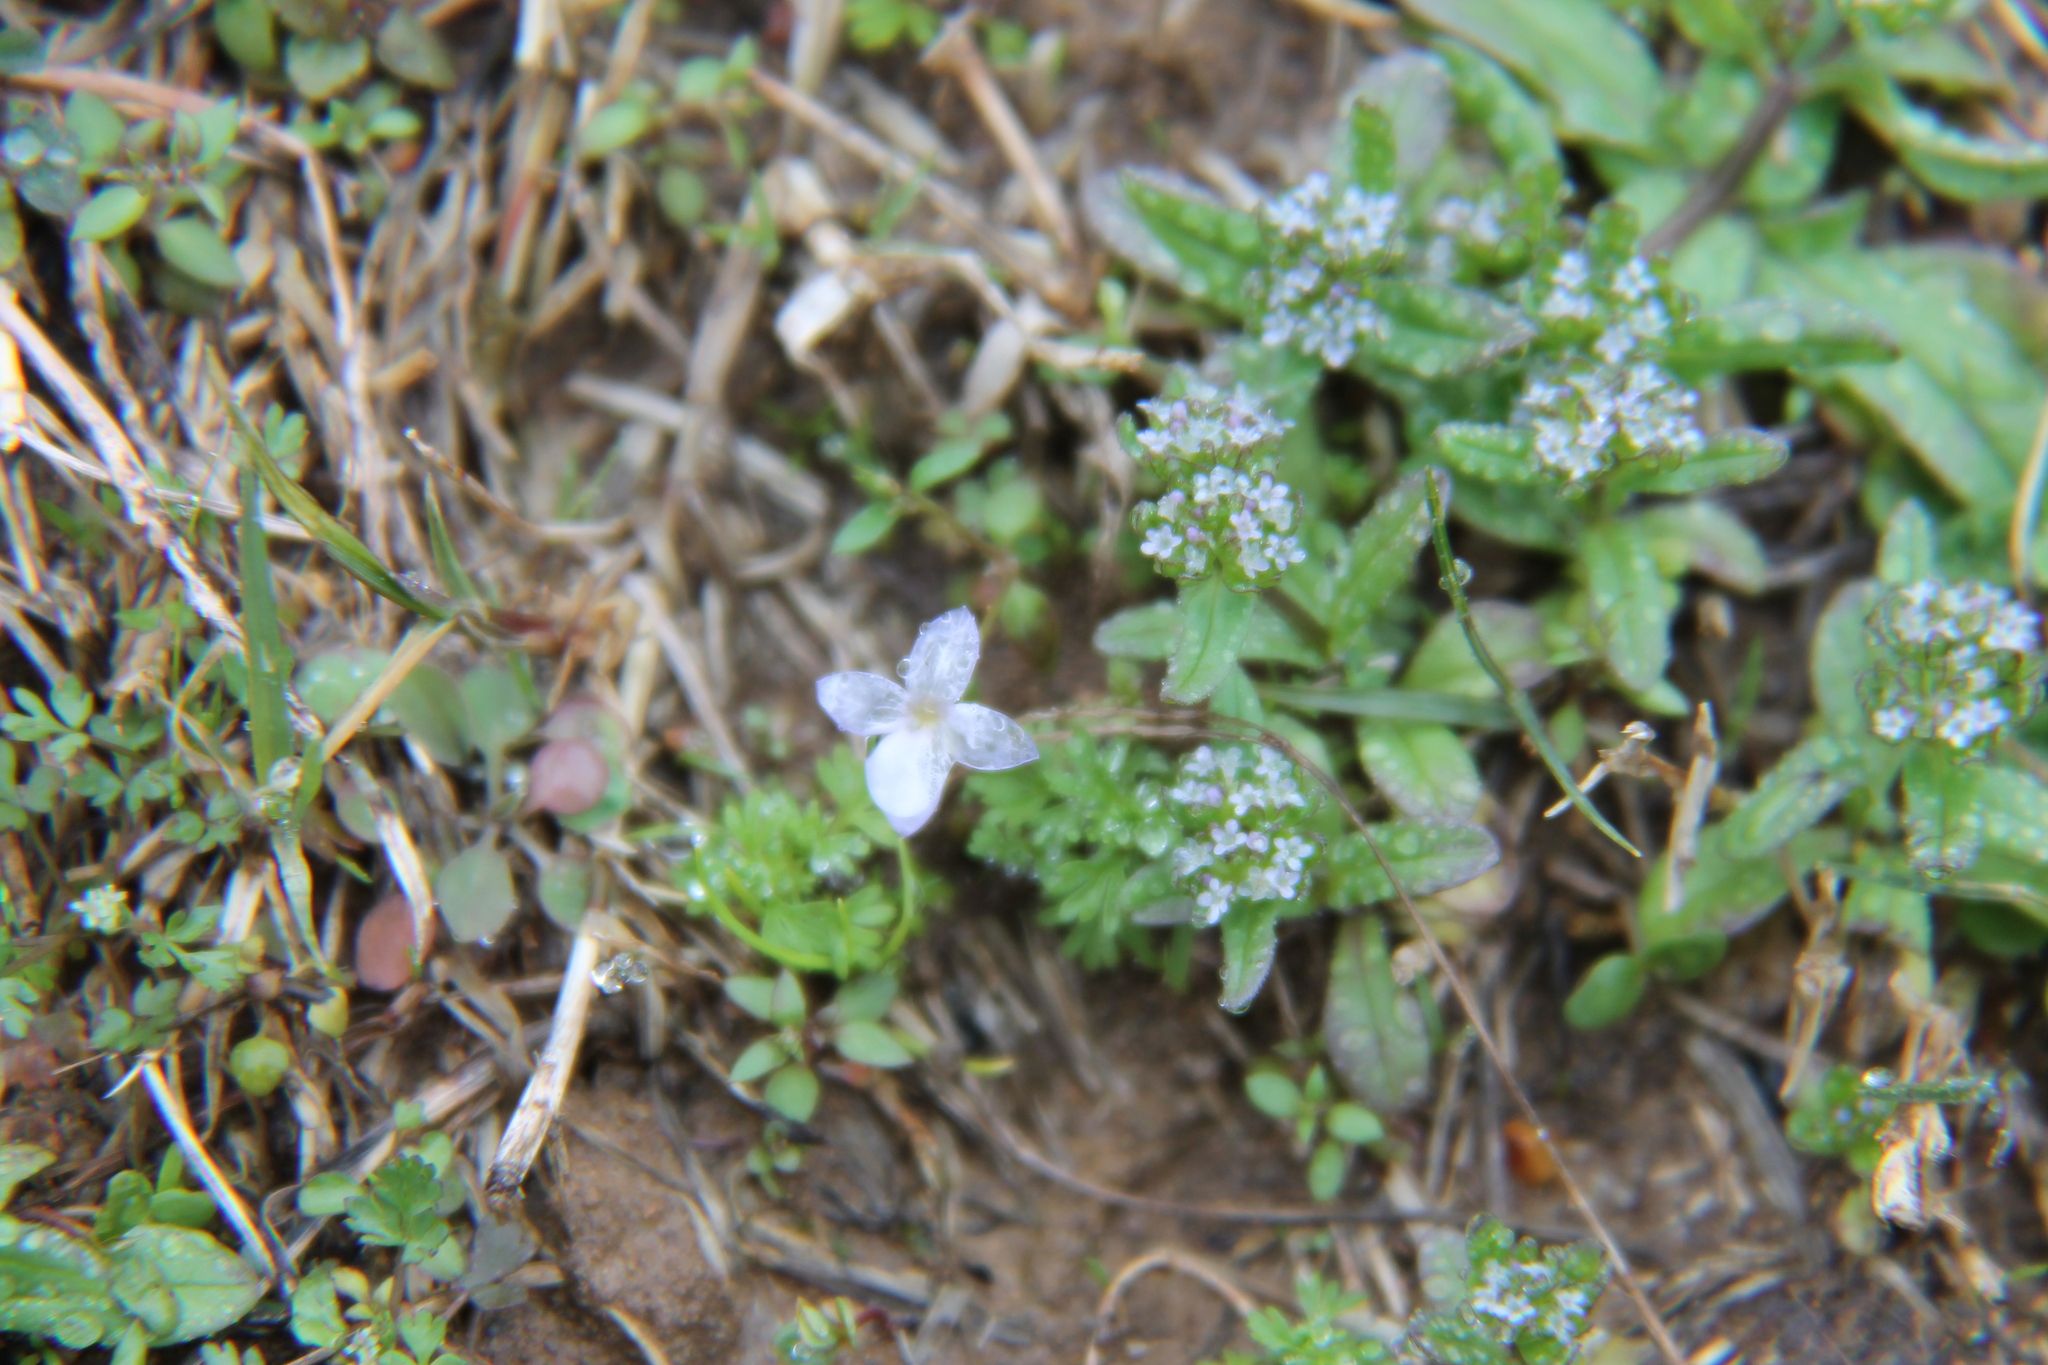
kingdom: Plantae
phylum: Tracheophyta
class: Magnoliopsida
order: Gentianales
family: Rubiaceae
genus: Houstonia
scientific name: Houstonia pusilla
